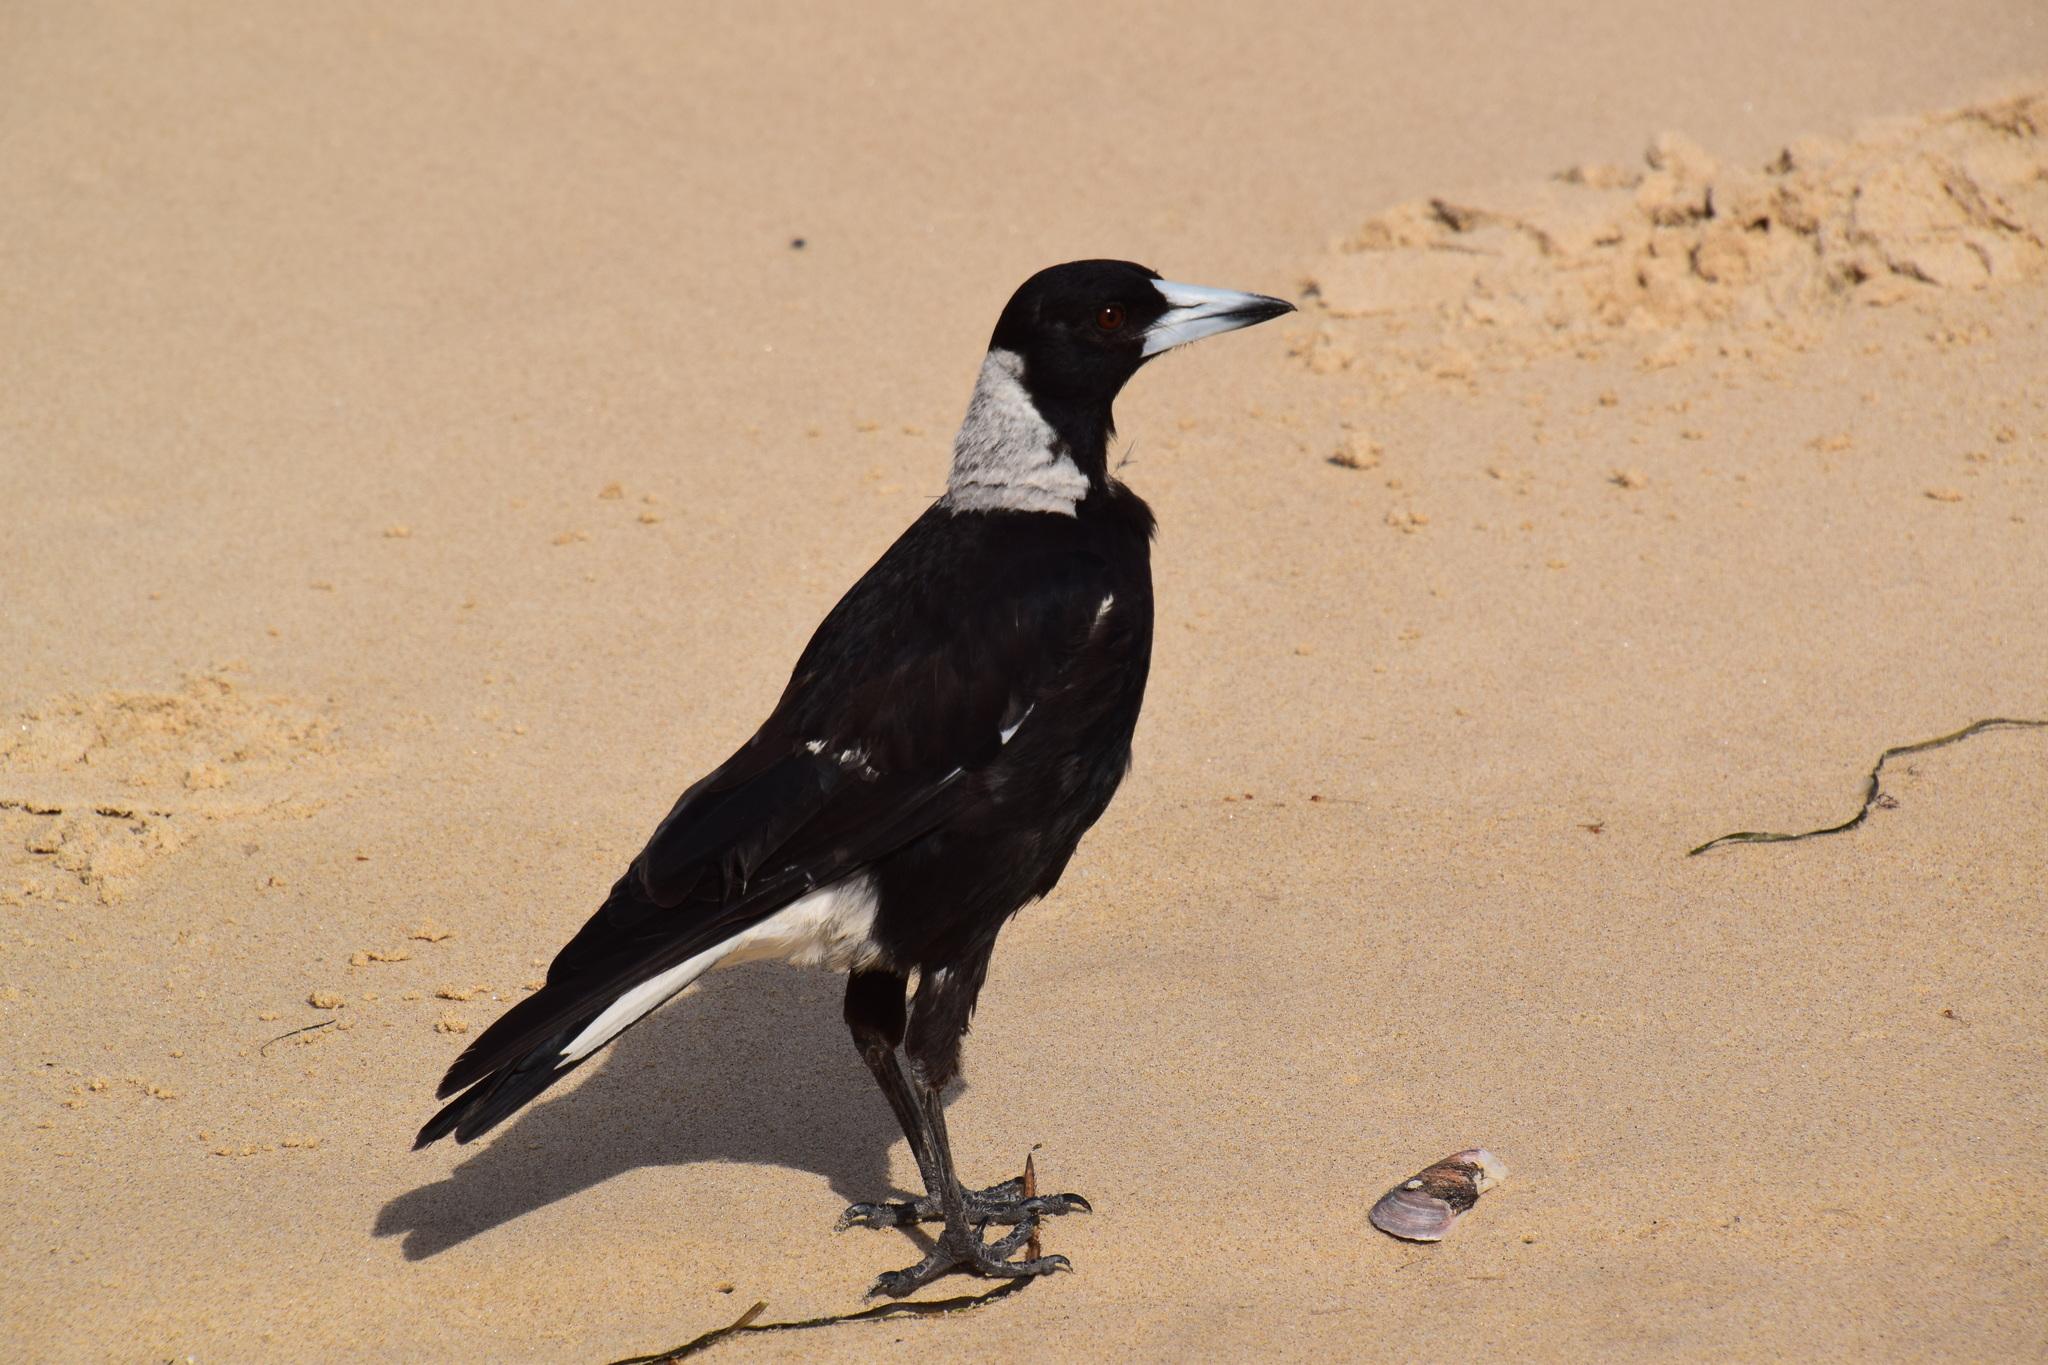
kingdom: Animalia
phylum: Chordata
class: Aves
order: Passeriformes
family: Cracticidae
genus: Gymnorhina
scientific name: Gymnorhina tibicen
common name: Australian magpie
